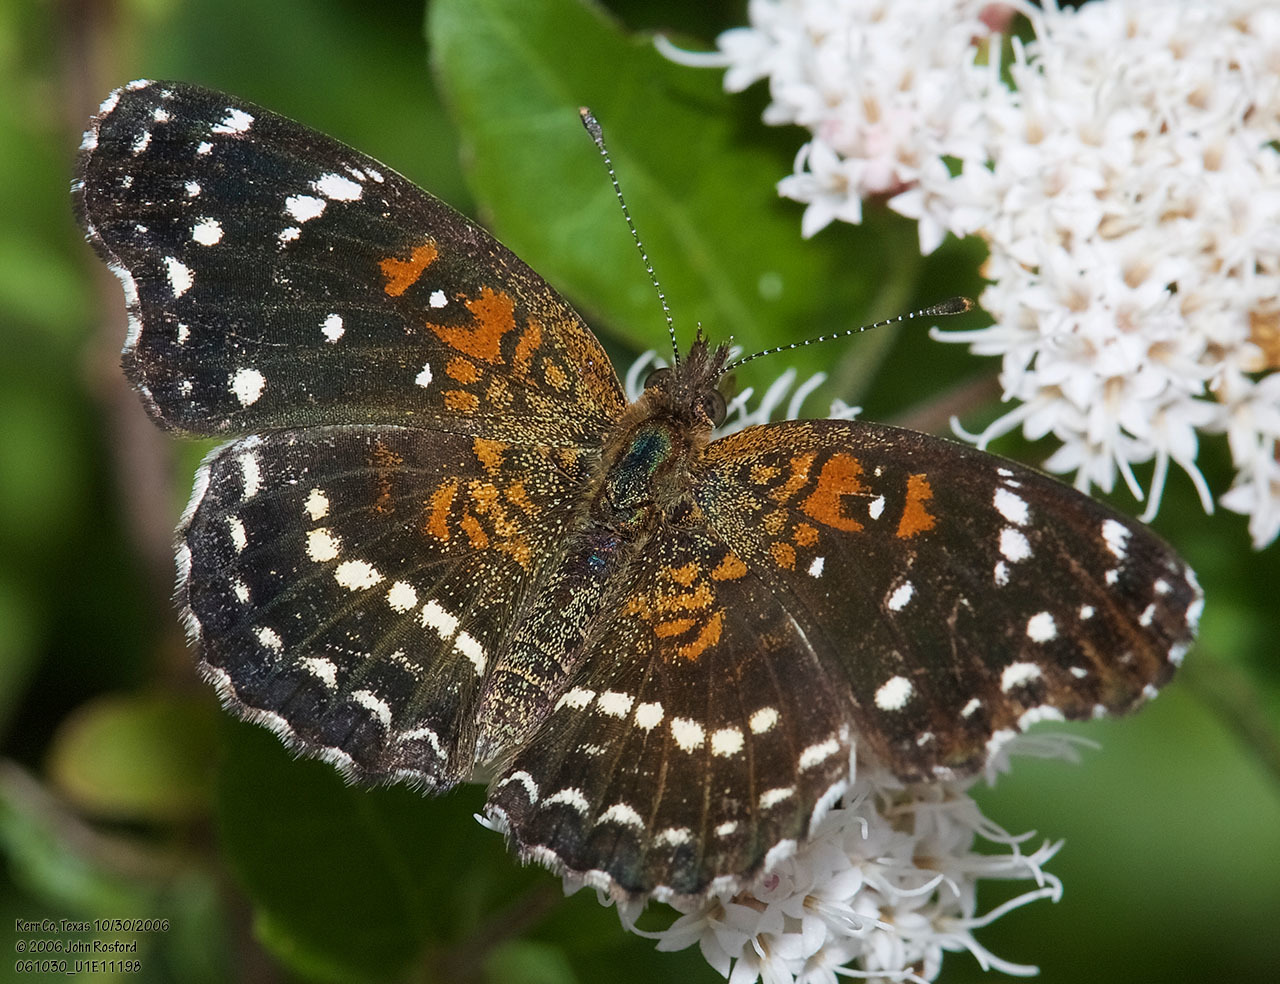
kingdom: Animalia
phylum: Arthropoda
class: Insecta
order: Lepidoptera
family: Nymphalidae
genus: Anthanassa
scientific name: Anthanassa texana
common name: Texan crescent
